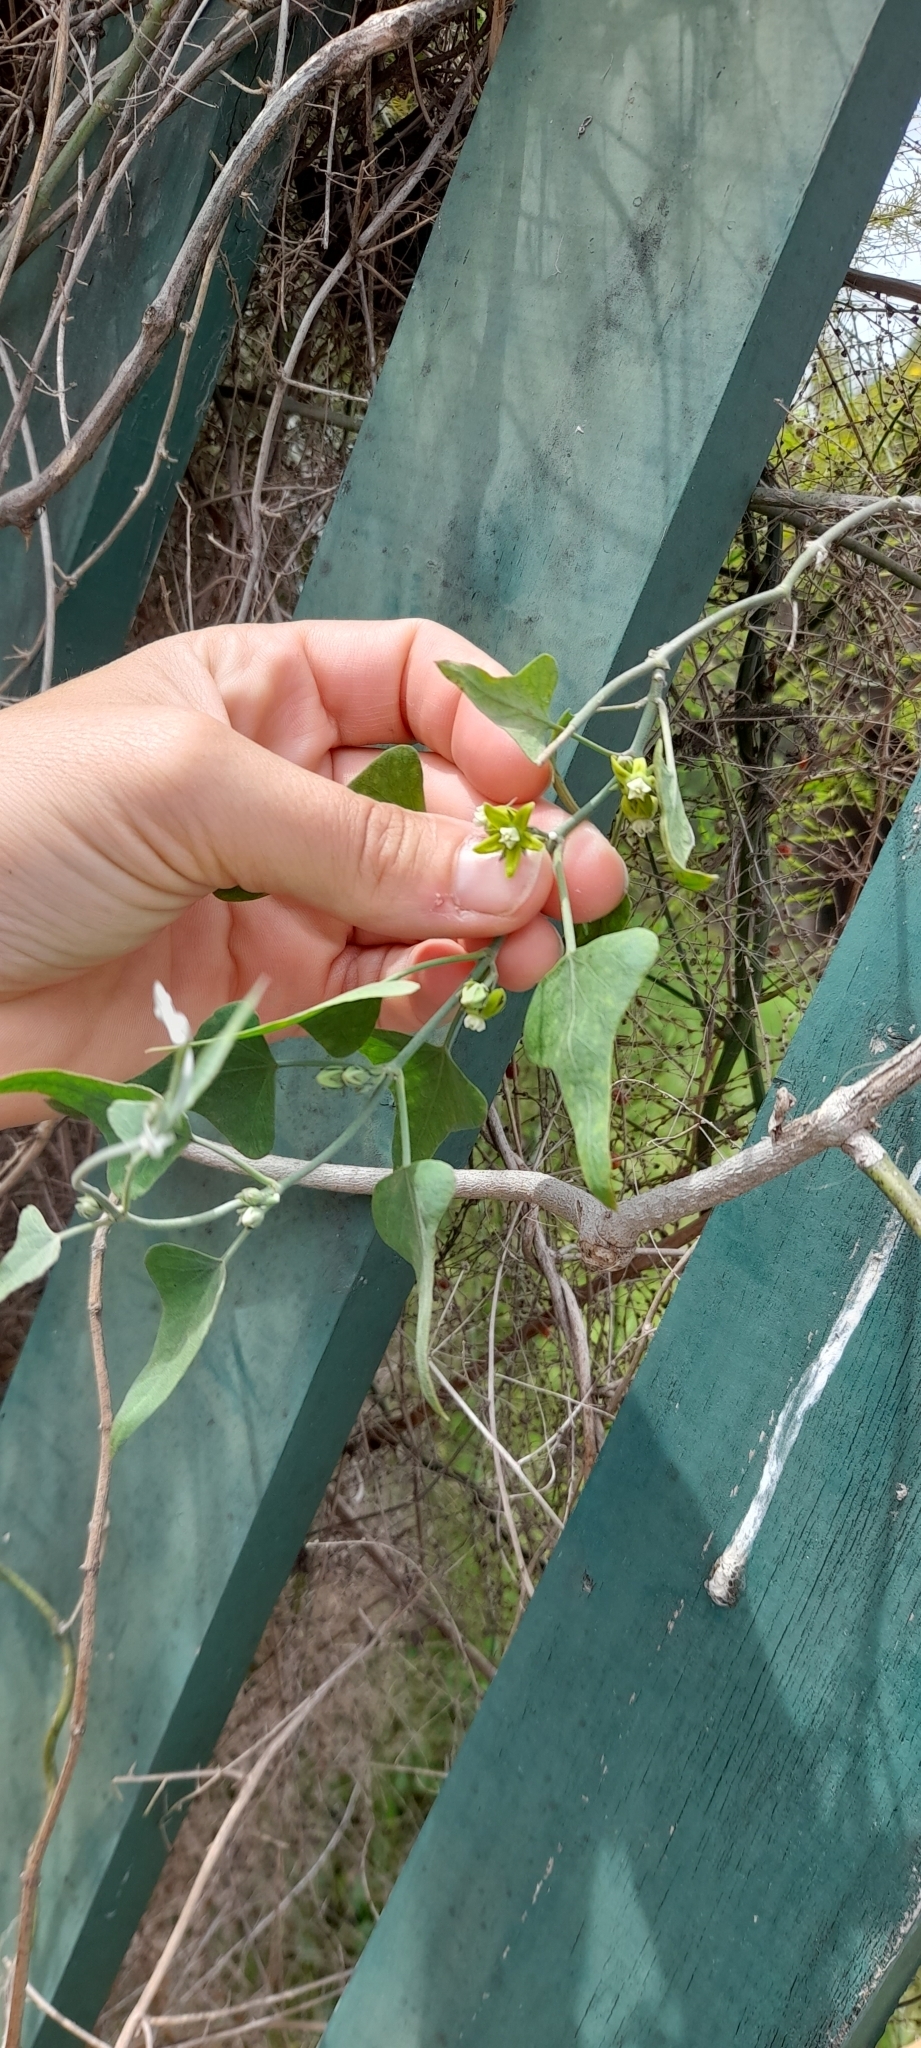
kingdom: Plantae
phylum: Tracheophyta
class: Magnoliopsida
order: Gentianales
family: Apocynaceae
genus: Araujia
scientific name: Araujia brachystephana
